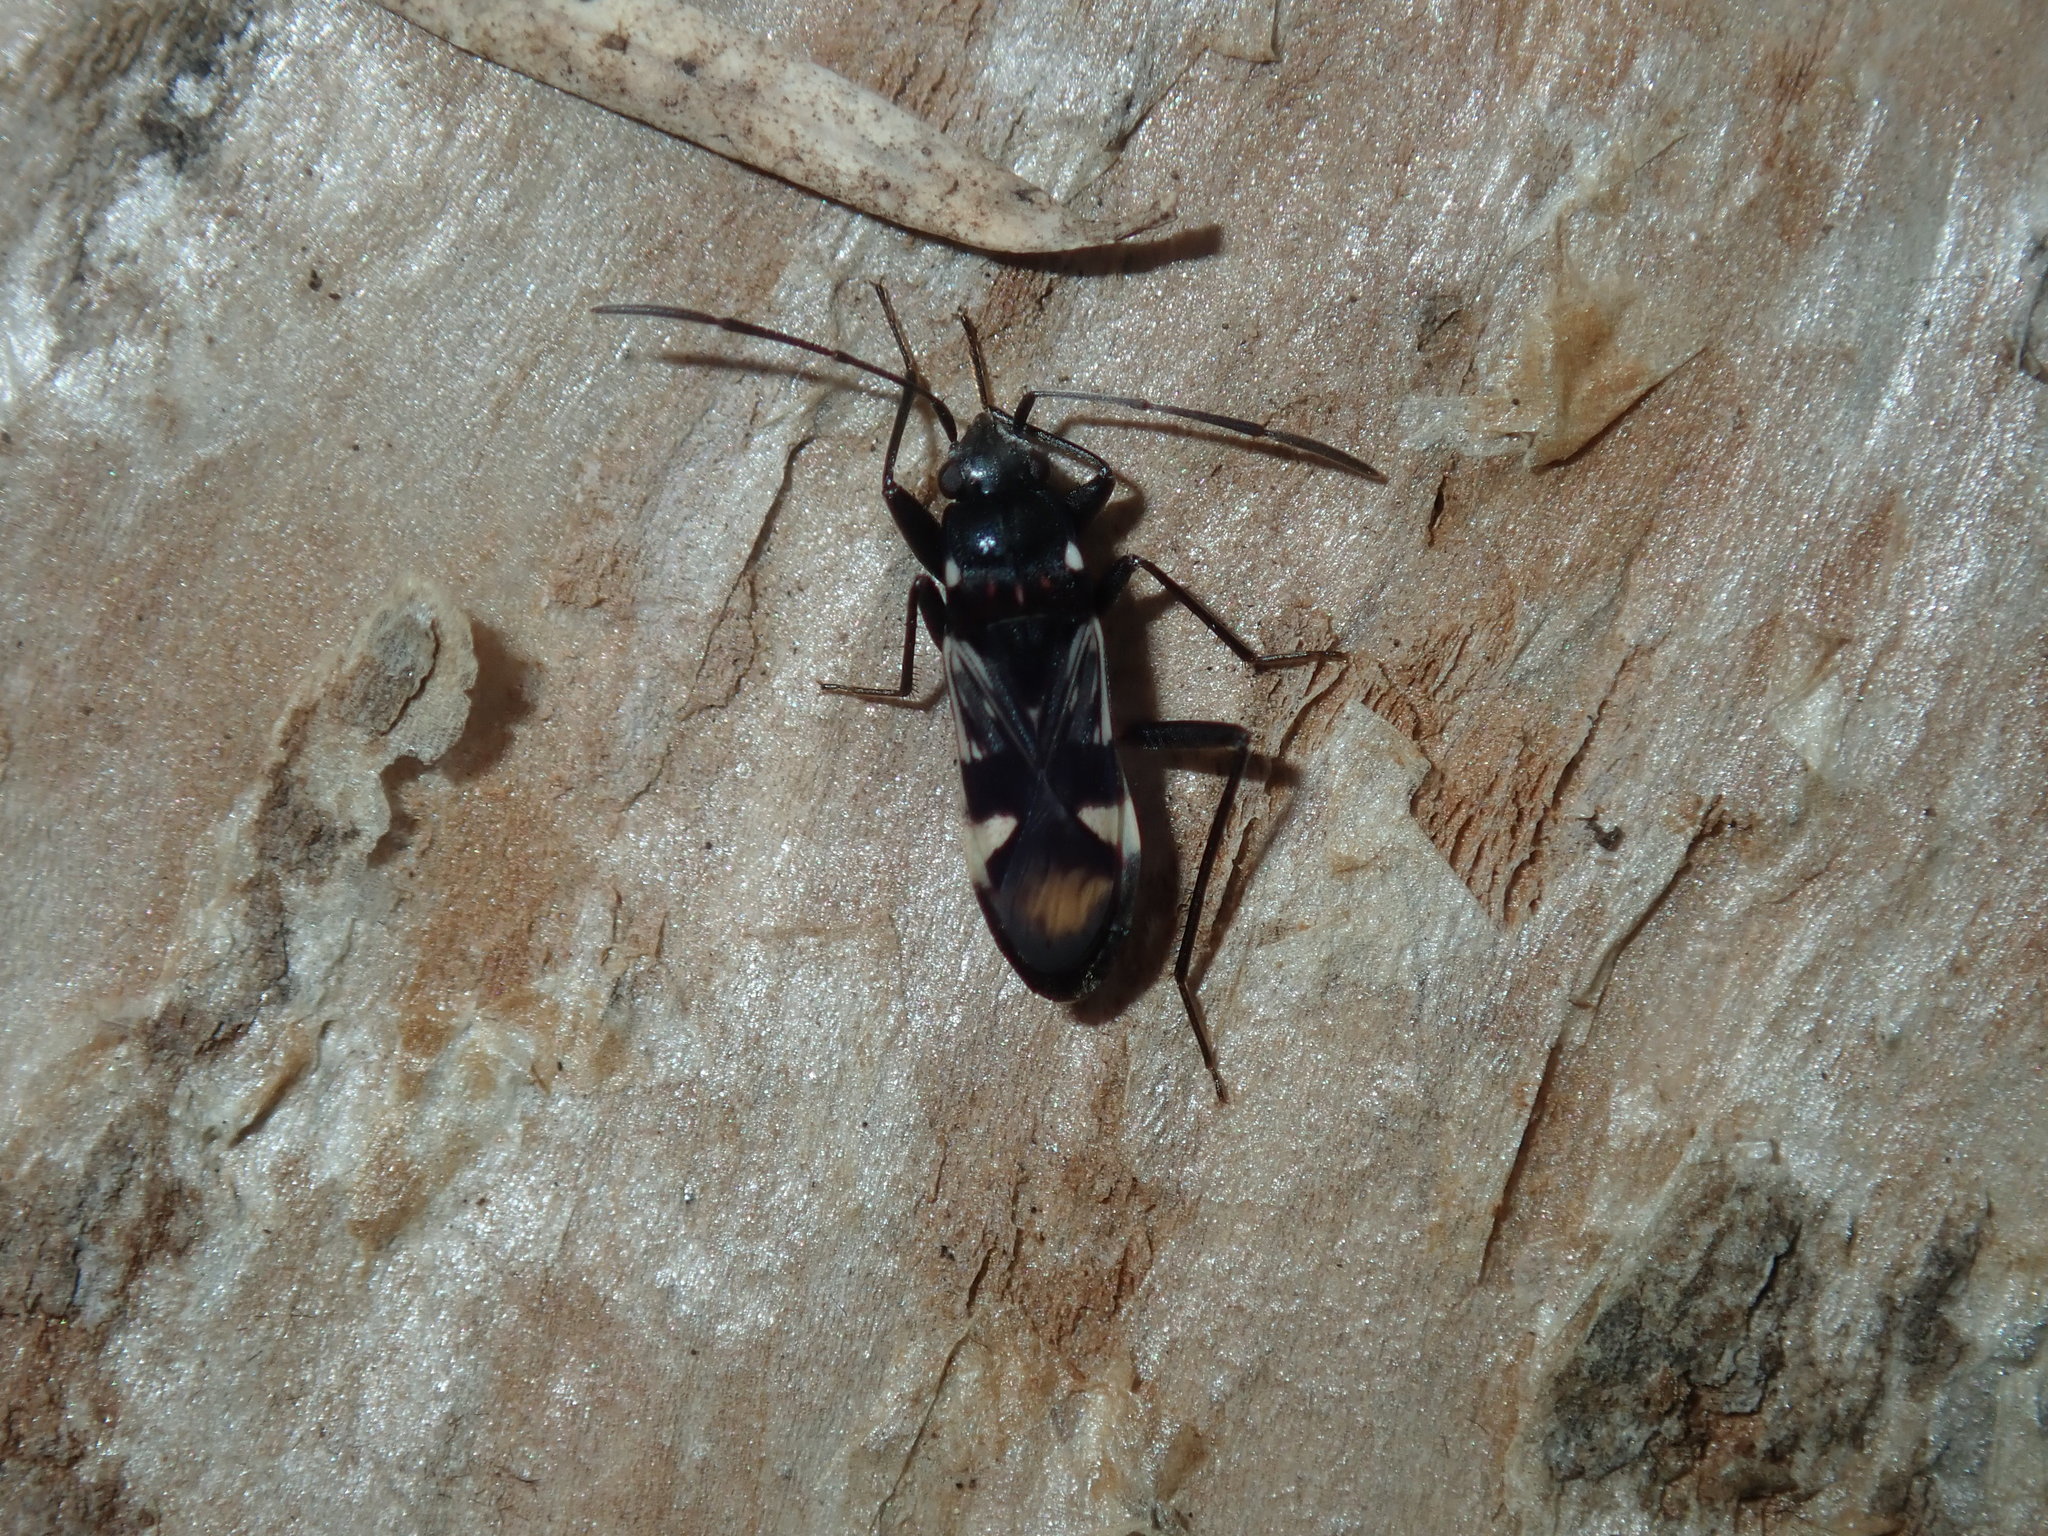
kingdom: Animalia
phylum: Arthropoda
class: Insecta
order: Hemiptera
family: Rhyparochromidae
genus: Dieuches
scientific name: Dieuches maculicollis
